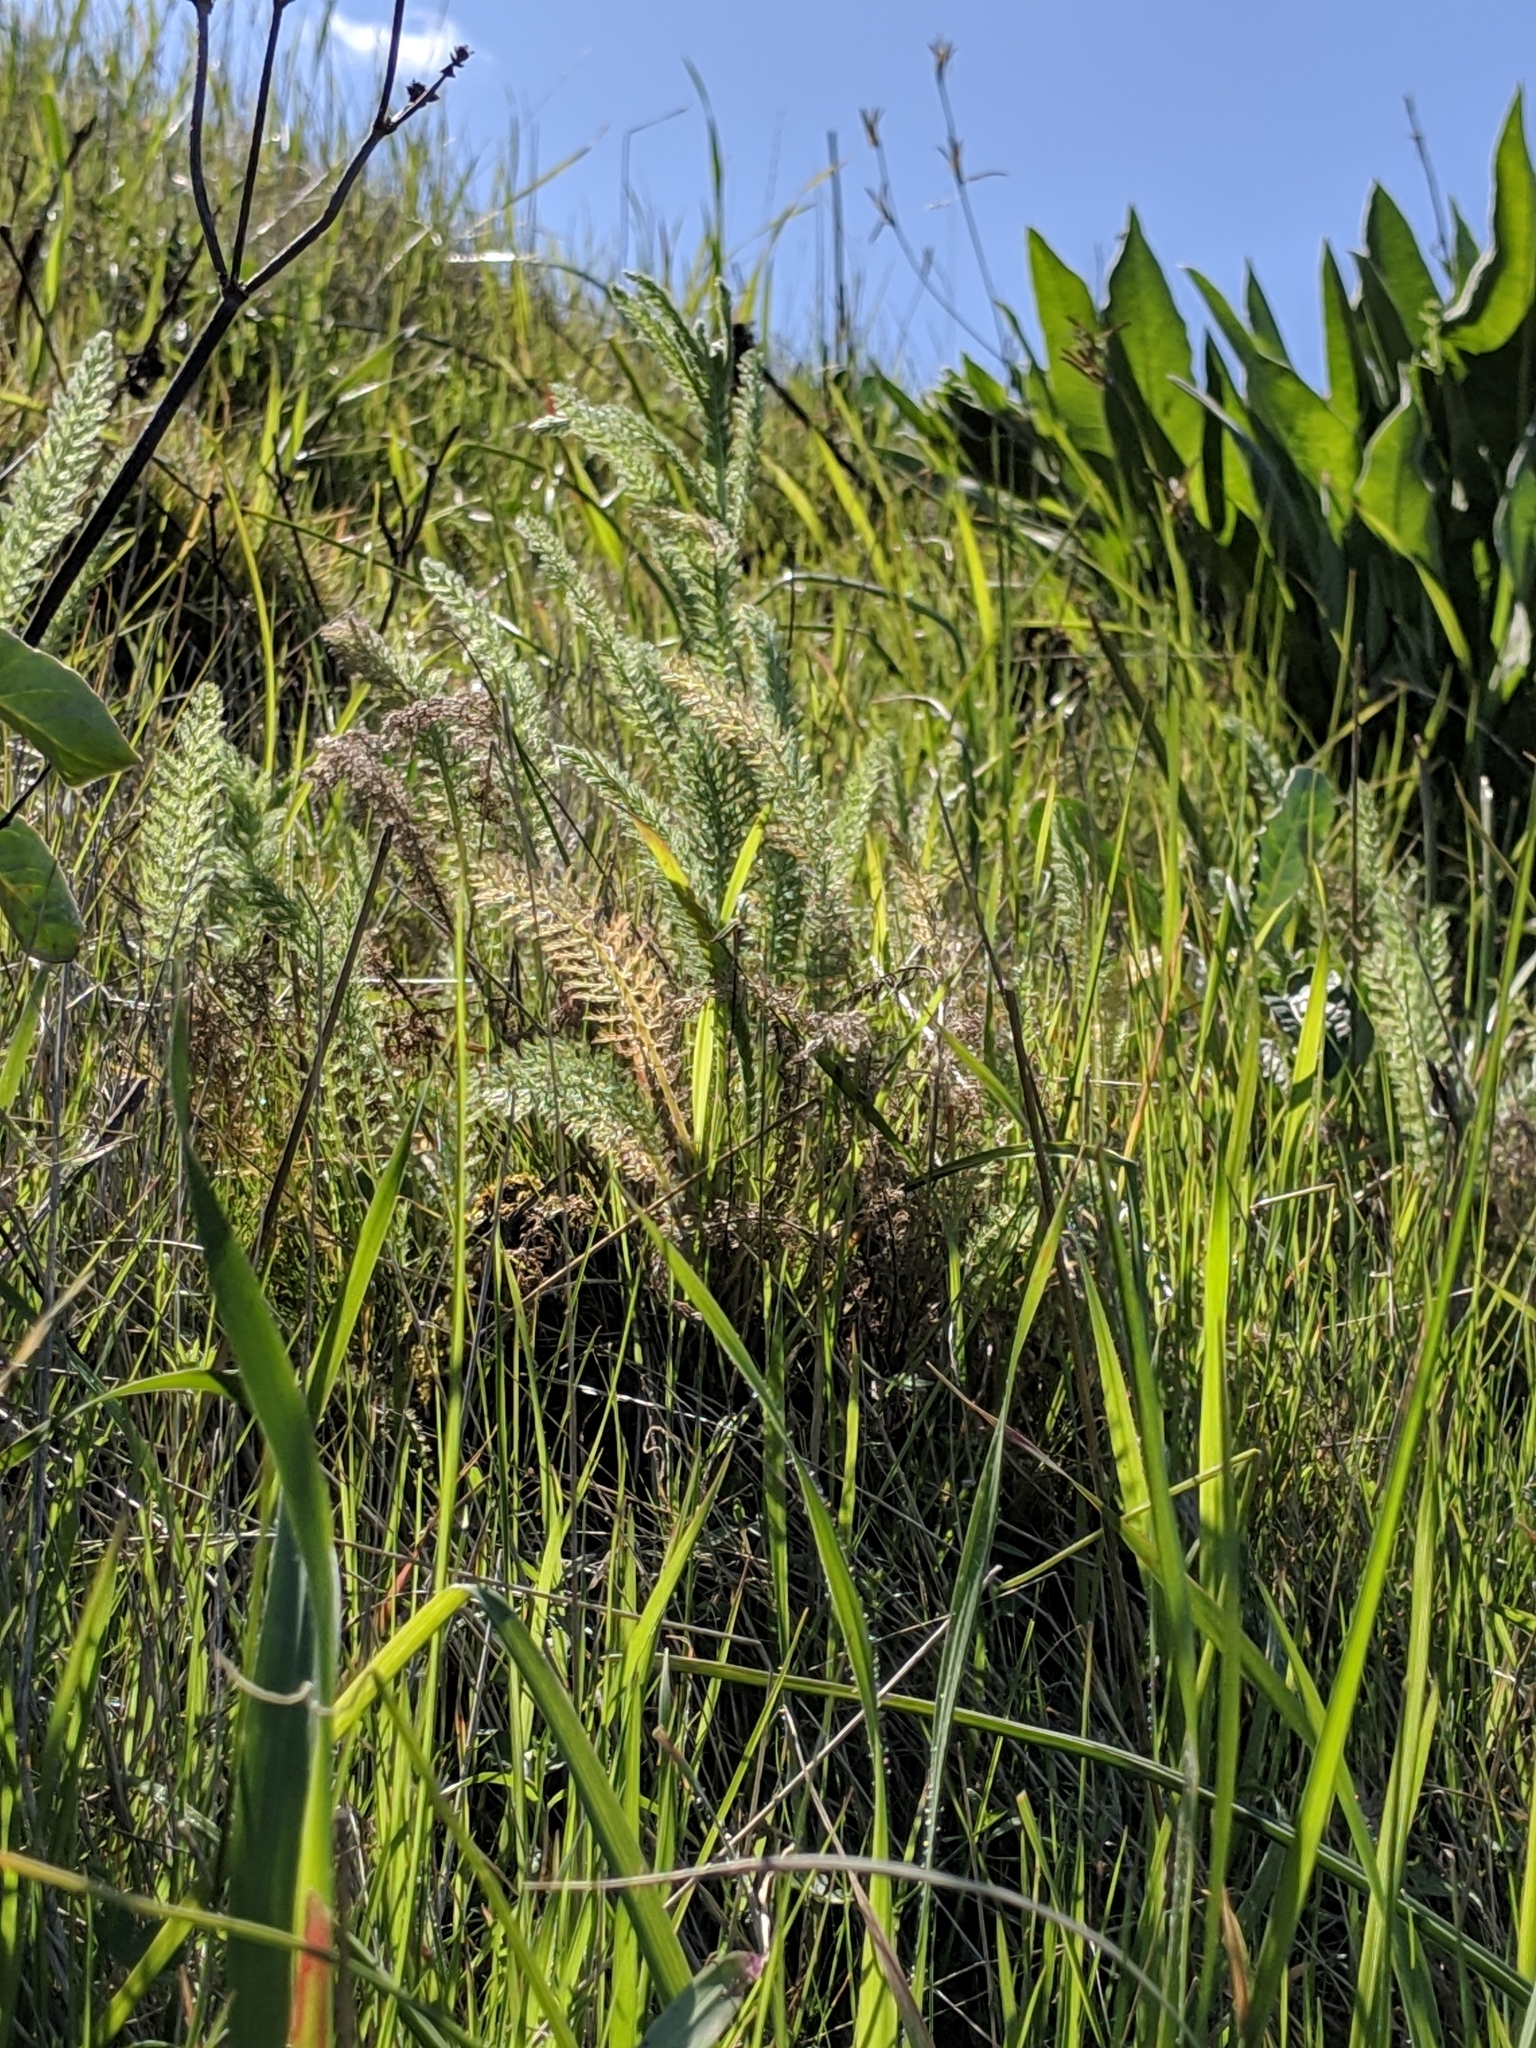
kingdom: Plantae
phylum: Tracheophyta
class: Magnoliopsida
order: Asterales
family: Asteraceae
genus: Achillea
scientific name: Achillea millefolium
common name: Yarrow
